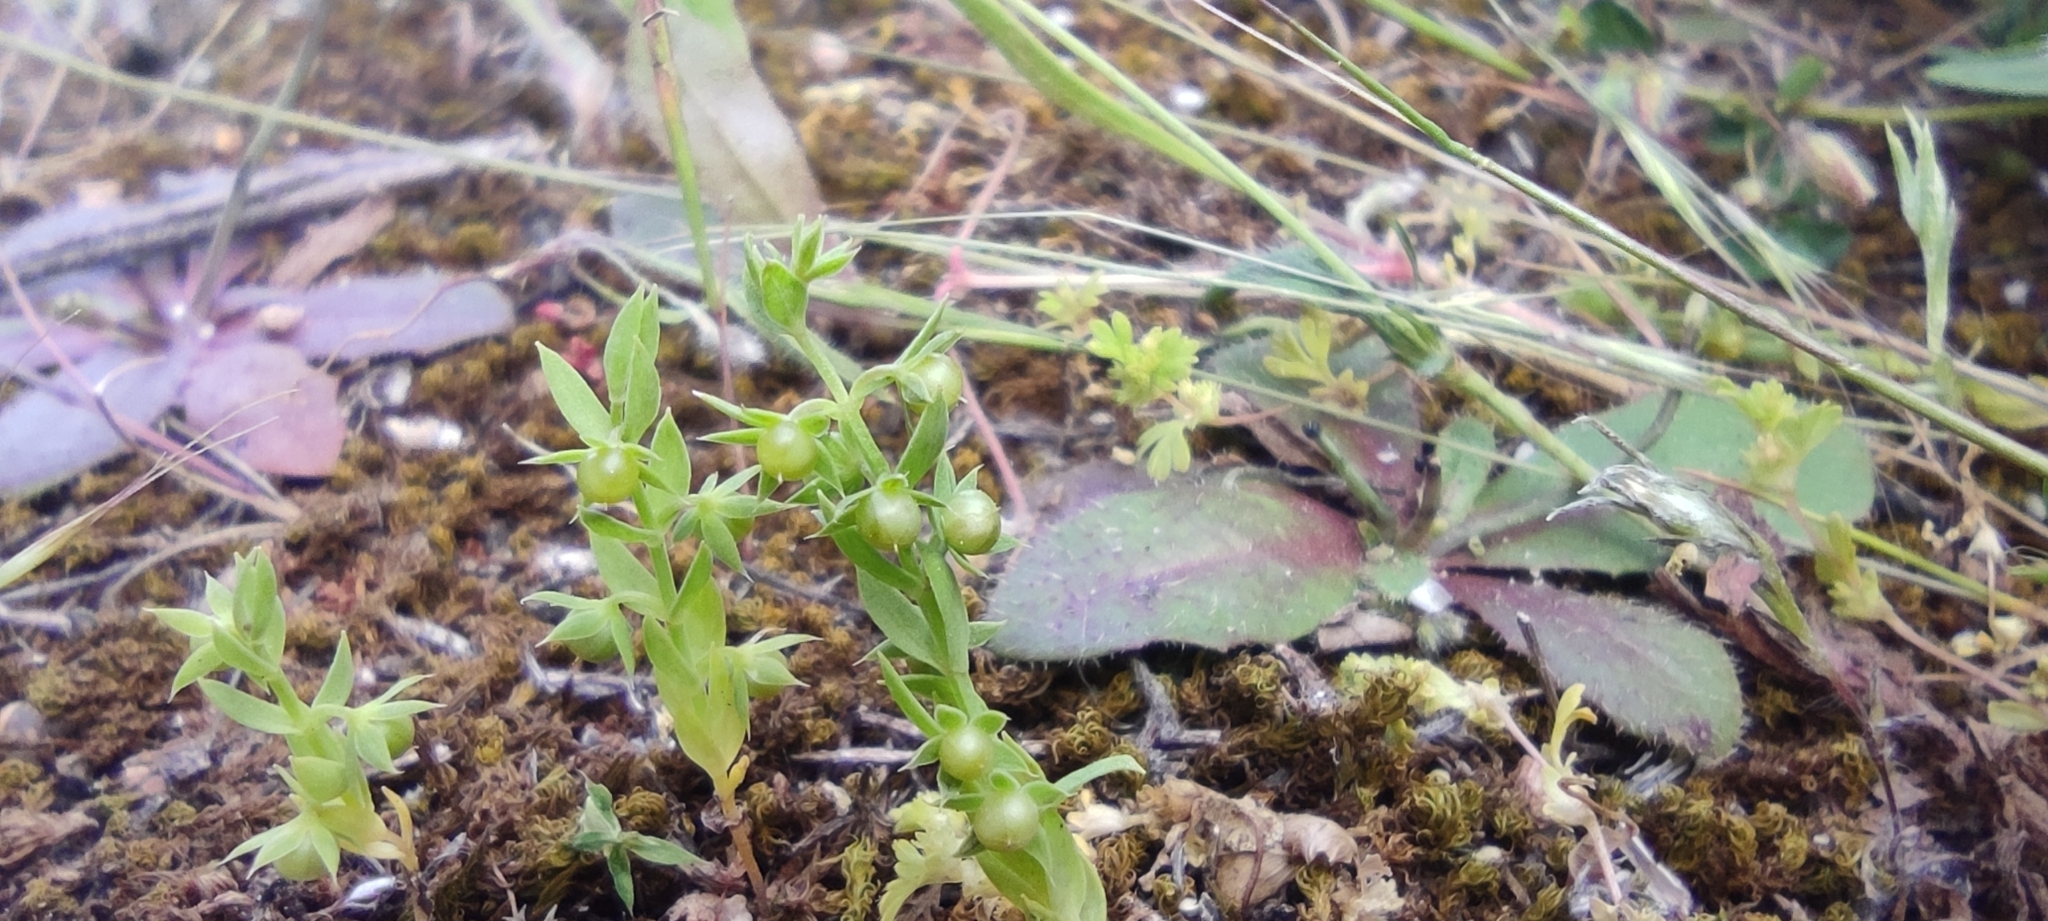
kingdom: Plantae
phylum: Tracheophyta
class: Magnoliopsida
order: Ericales
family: Primulaceae
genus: Lysimachia
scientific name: Lysimachia linum-stellatum
